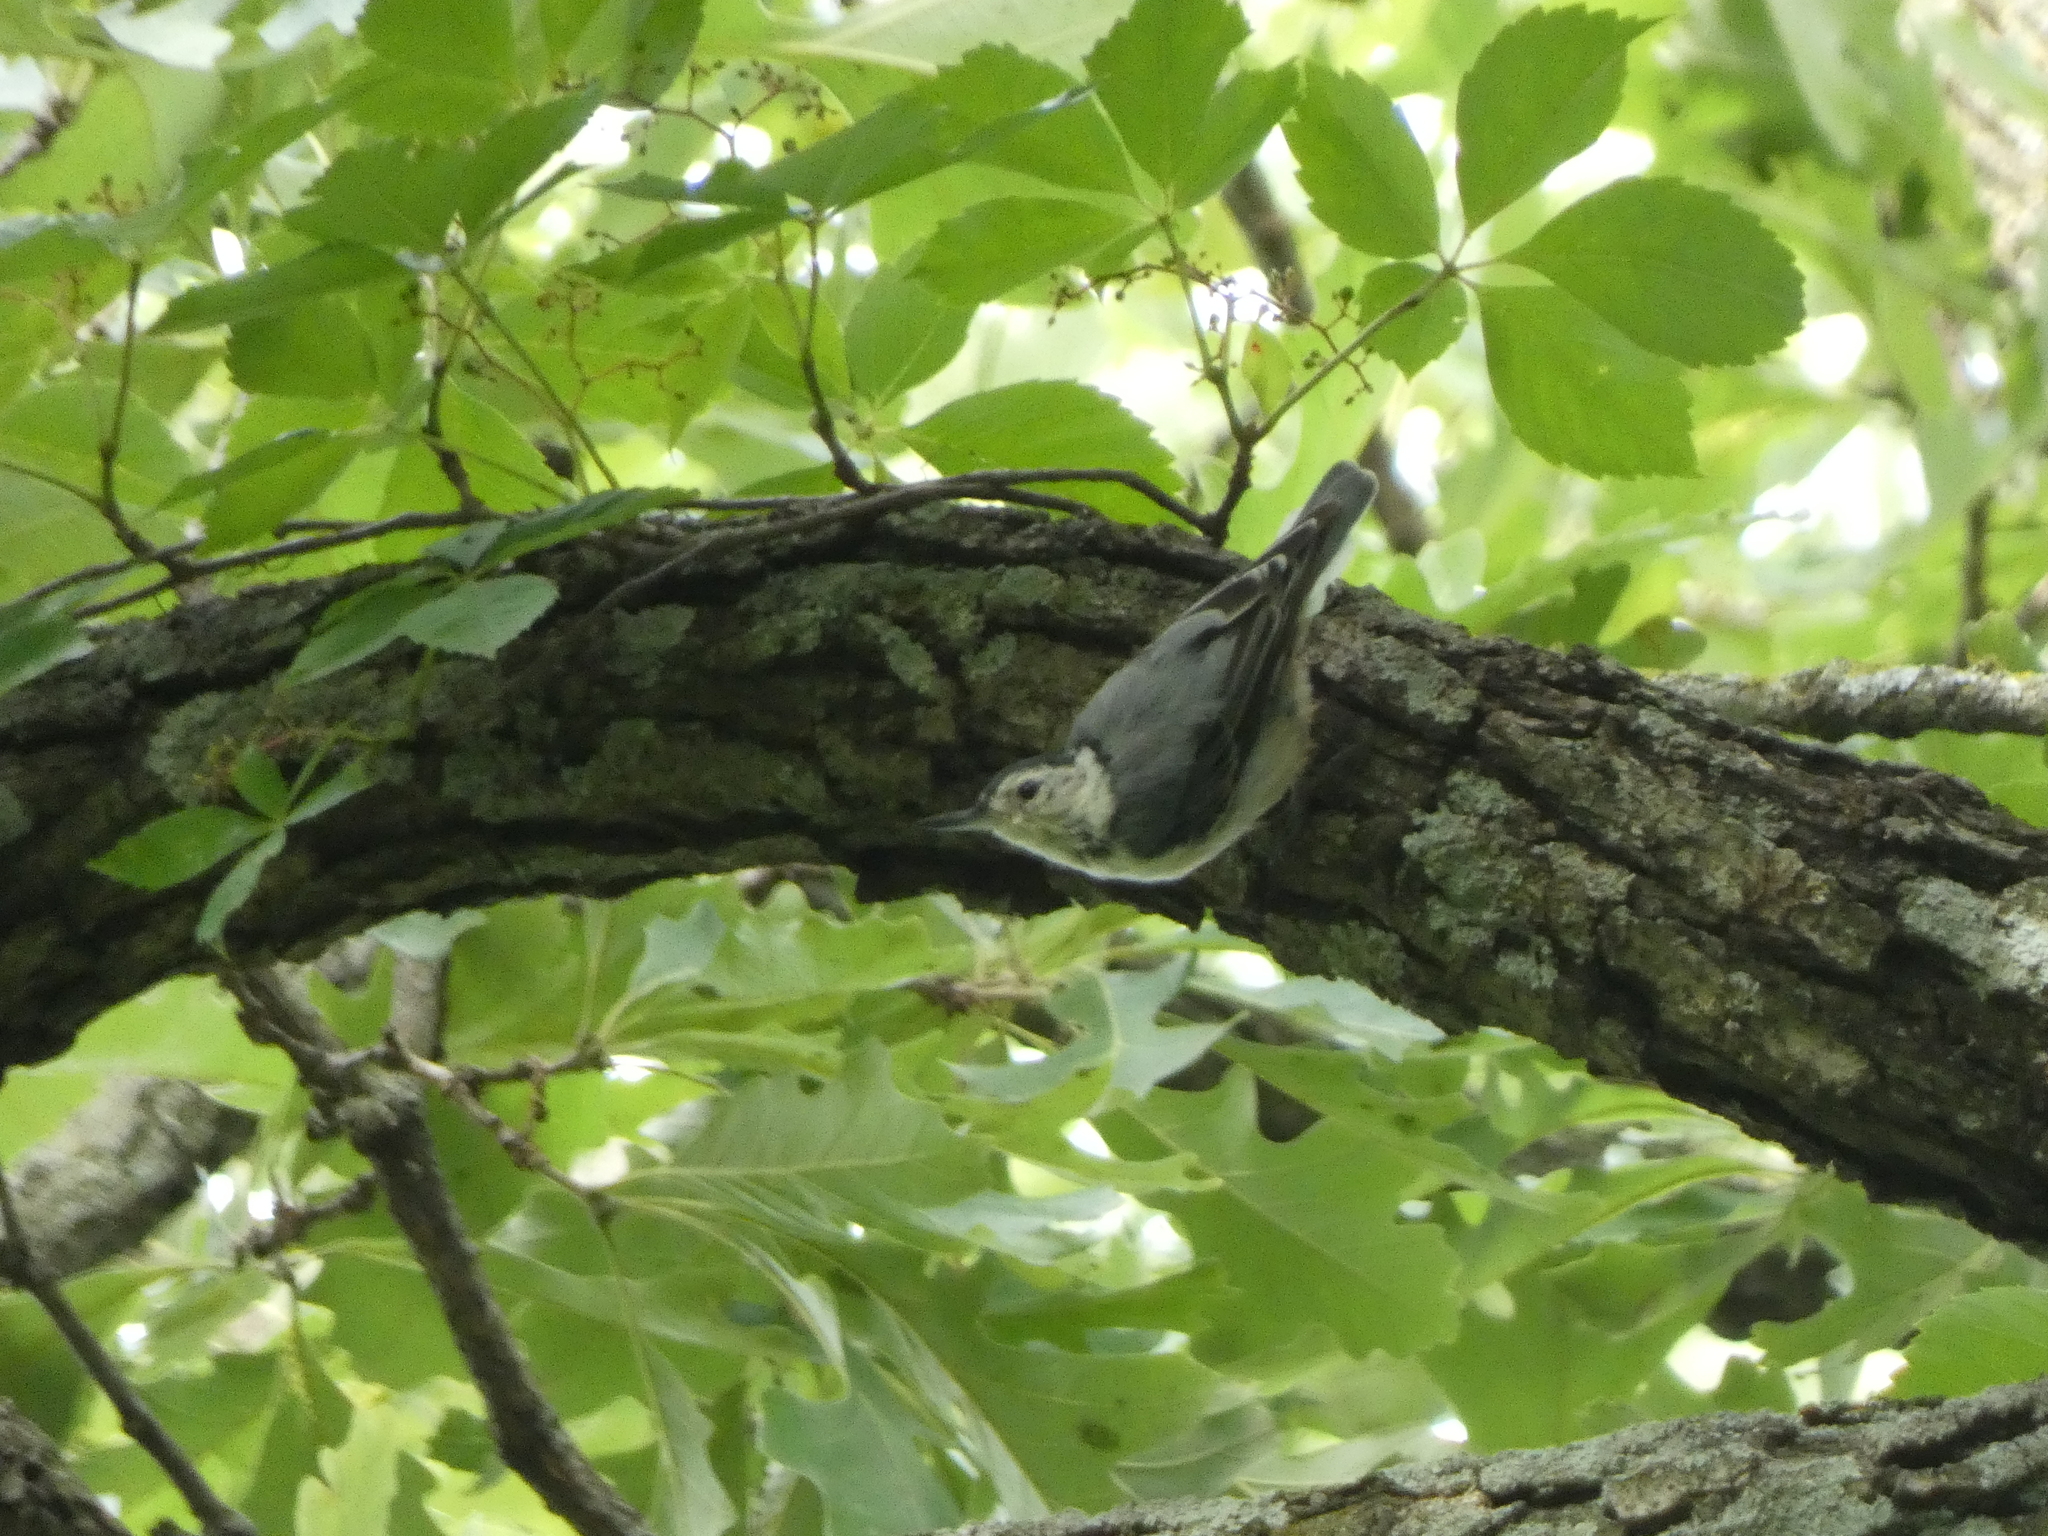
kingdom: Animalia
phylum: Chordata
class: Aves
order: Passeriformes
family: Sittidae
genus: Sitta
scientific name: Sitta carolinensis
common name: White-breasted nuthatch
